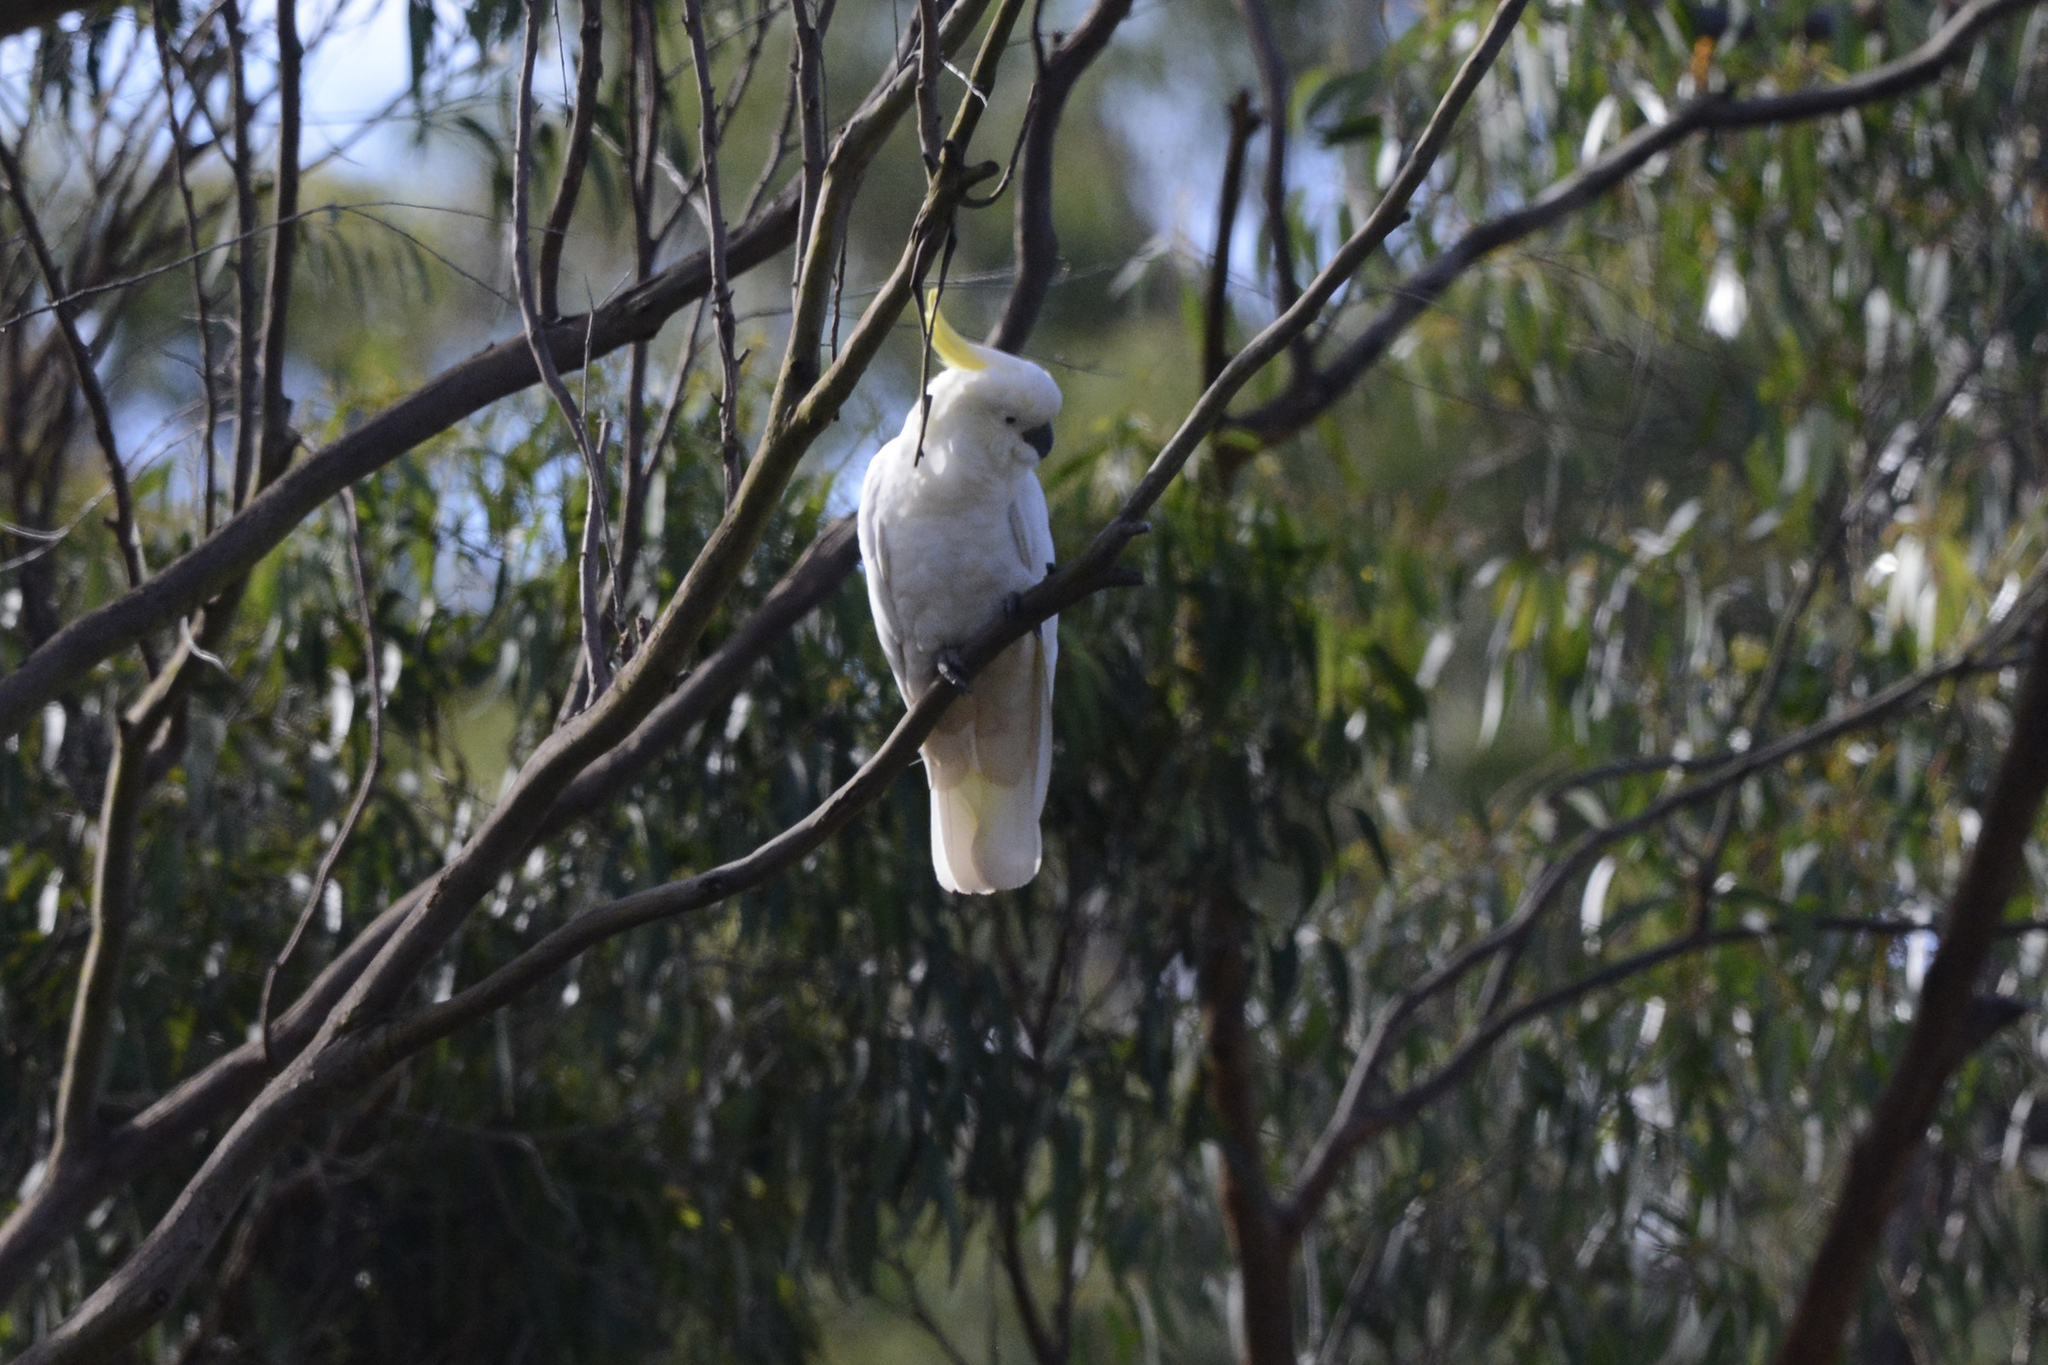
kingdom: Animalia
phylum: Chordata
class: Aves
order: Psittaciformes
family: Psittacidae
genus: Cacatua
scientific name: Cacatua galerita
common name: Sulphur-crested cockatoo
